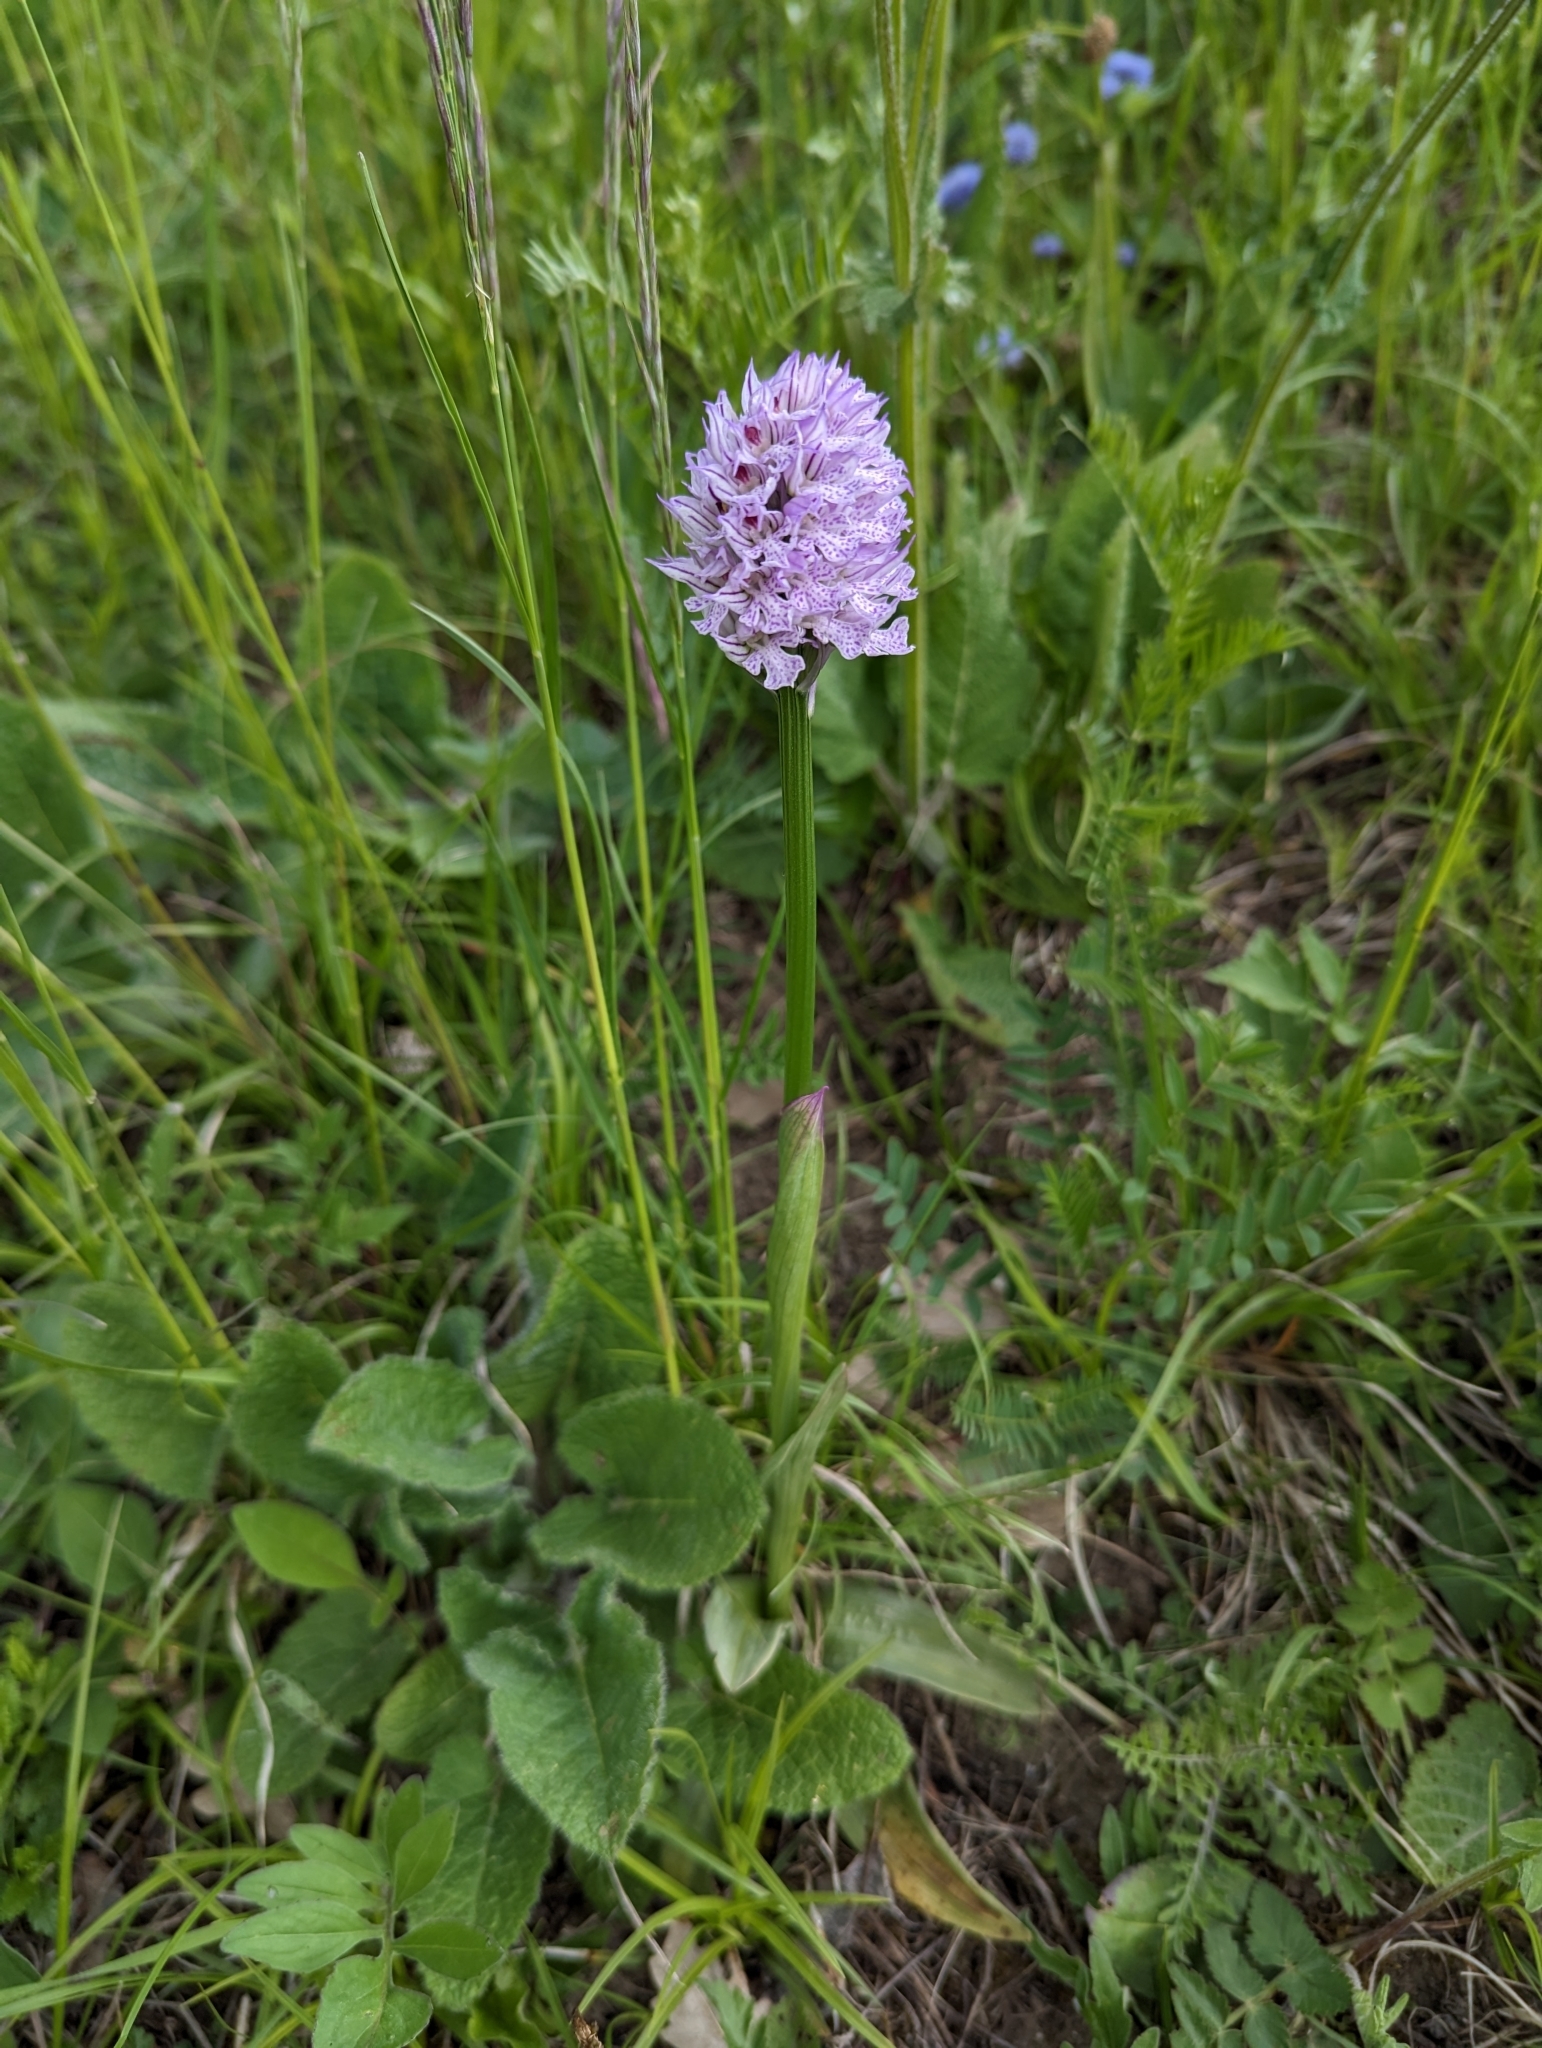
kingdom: Plantae
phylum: Tracheophyta
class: Liliopsida
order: Asparagales
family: Orchidaceae
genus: Neotinea
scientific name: Neotinea tridentata
